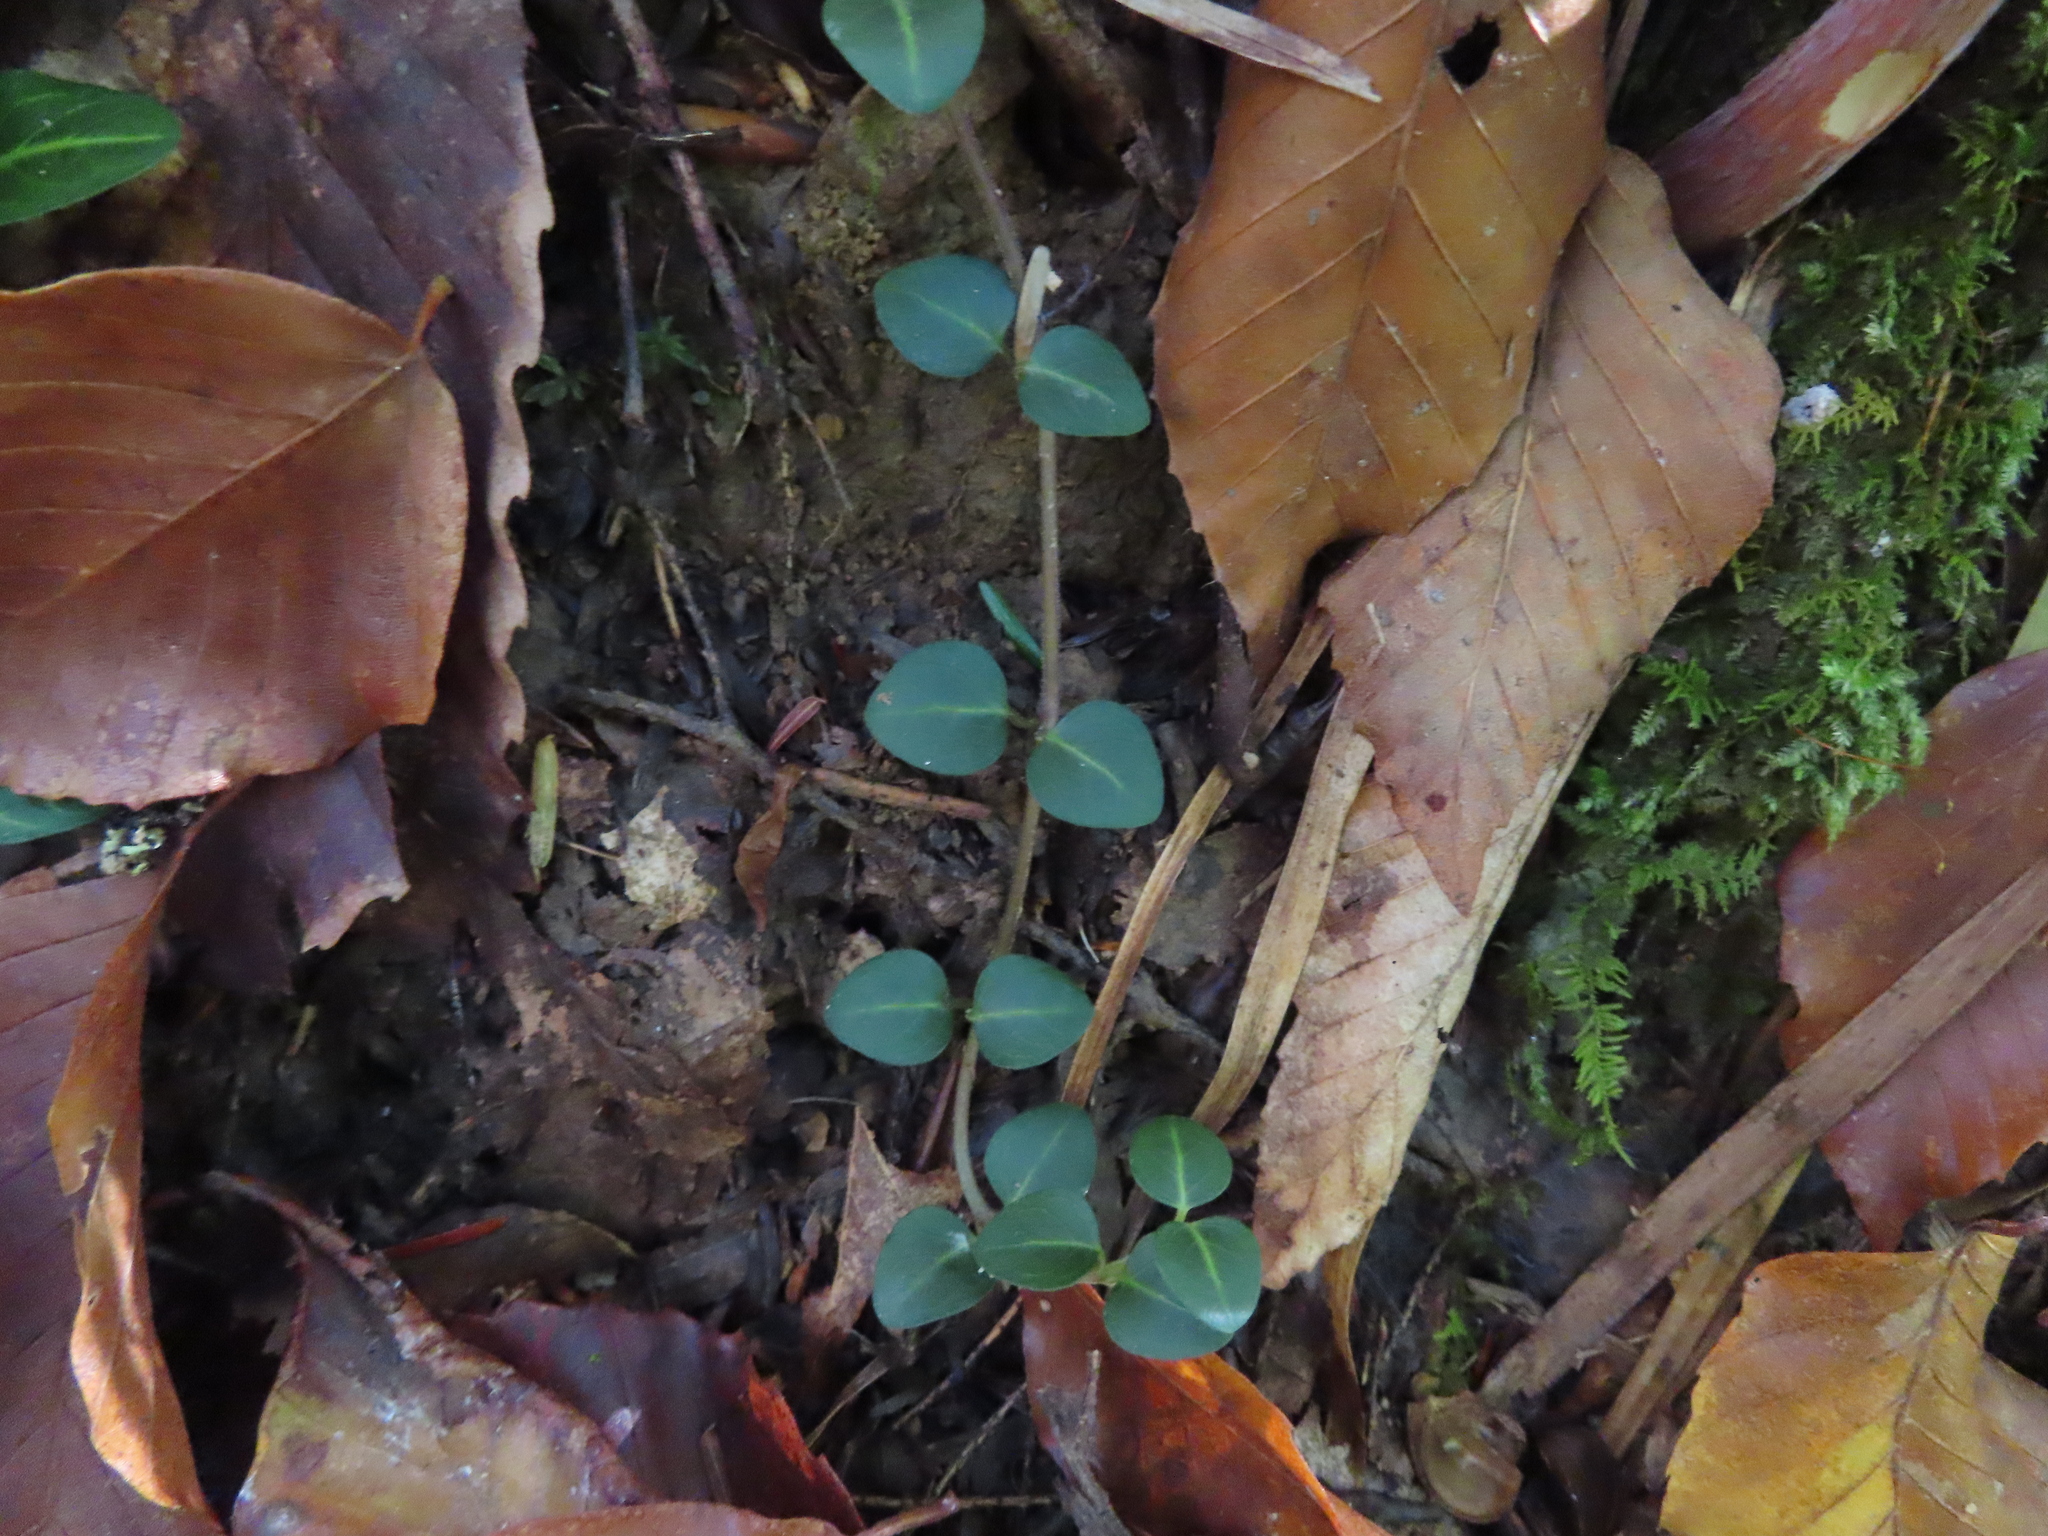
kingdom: Plantae
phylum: Tracheophyta
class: Magnoliopsida
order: Gentianales
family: Rubiaceae
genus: Mitchella
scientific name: Mitchella repens
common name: Partridge-berry
